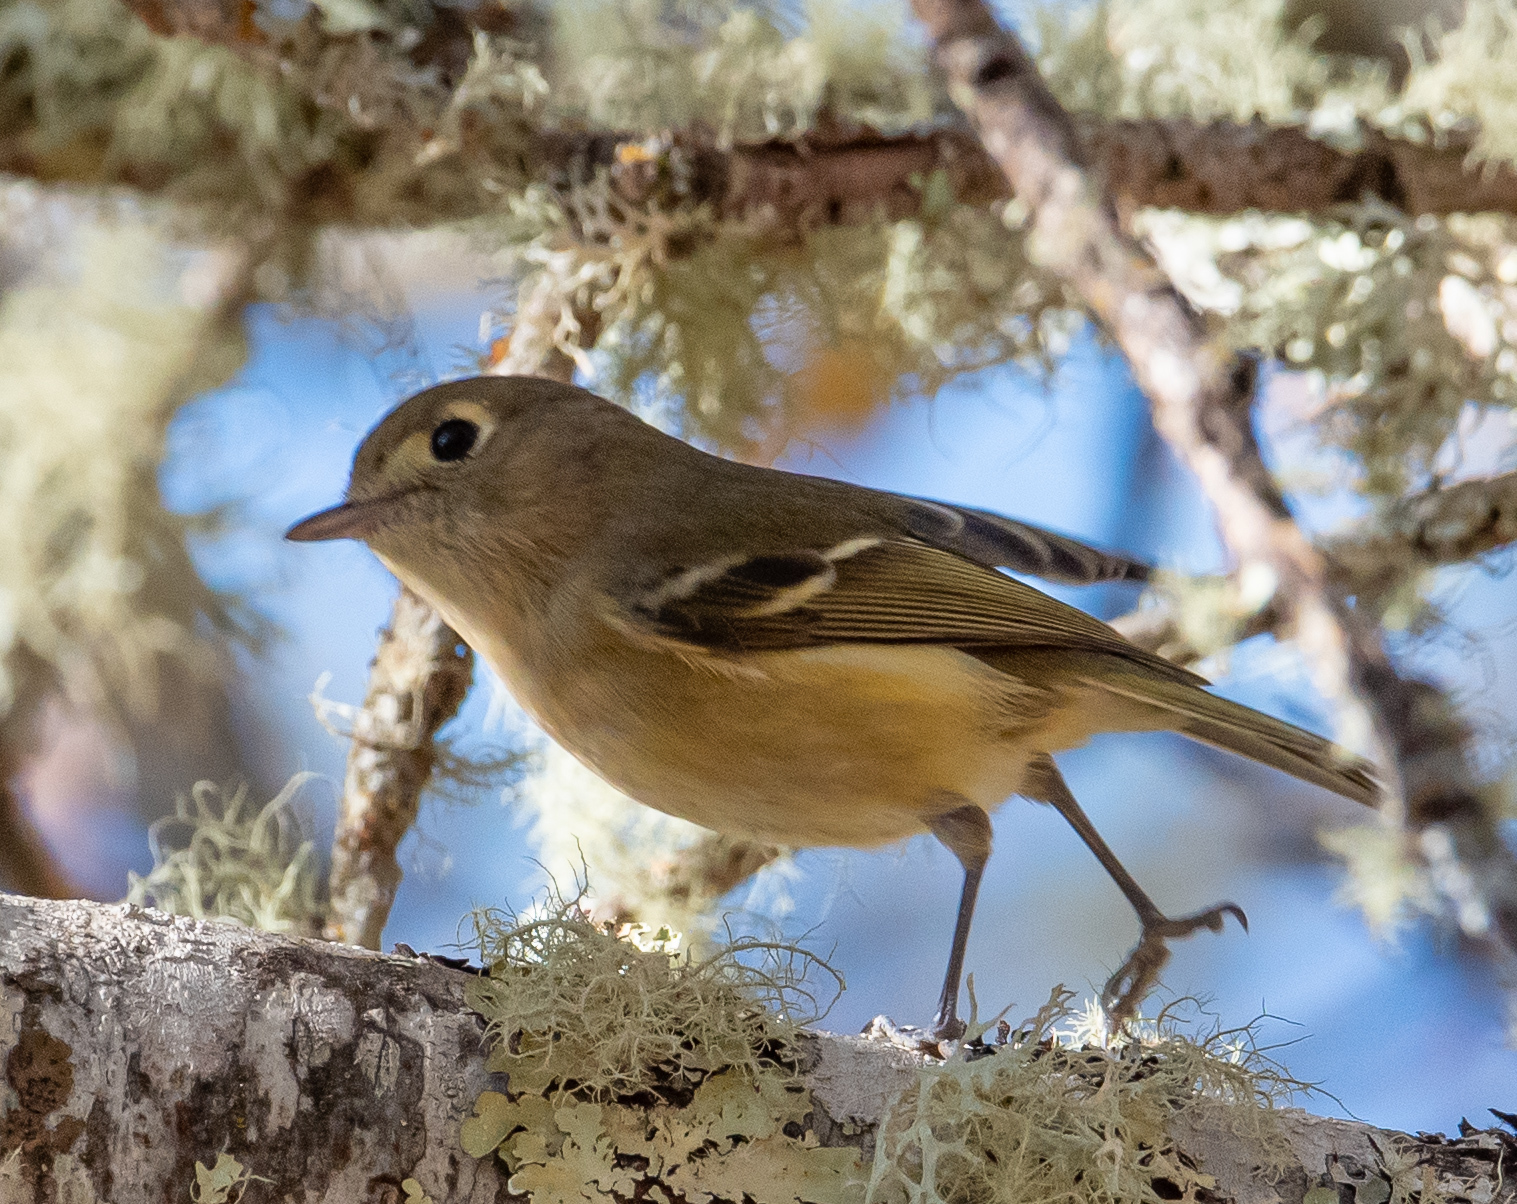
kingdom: Animalia
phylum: Chordata
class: Aves
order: Passeriformes
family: Vireonidae
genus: Vireo
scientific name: Vireo huttoni
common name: Hutton's vireo
